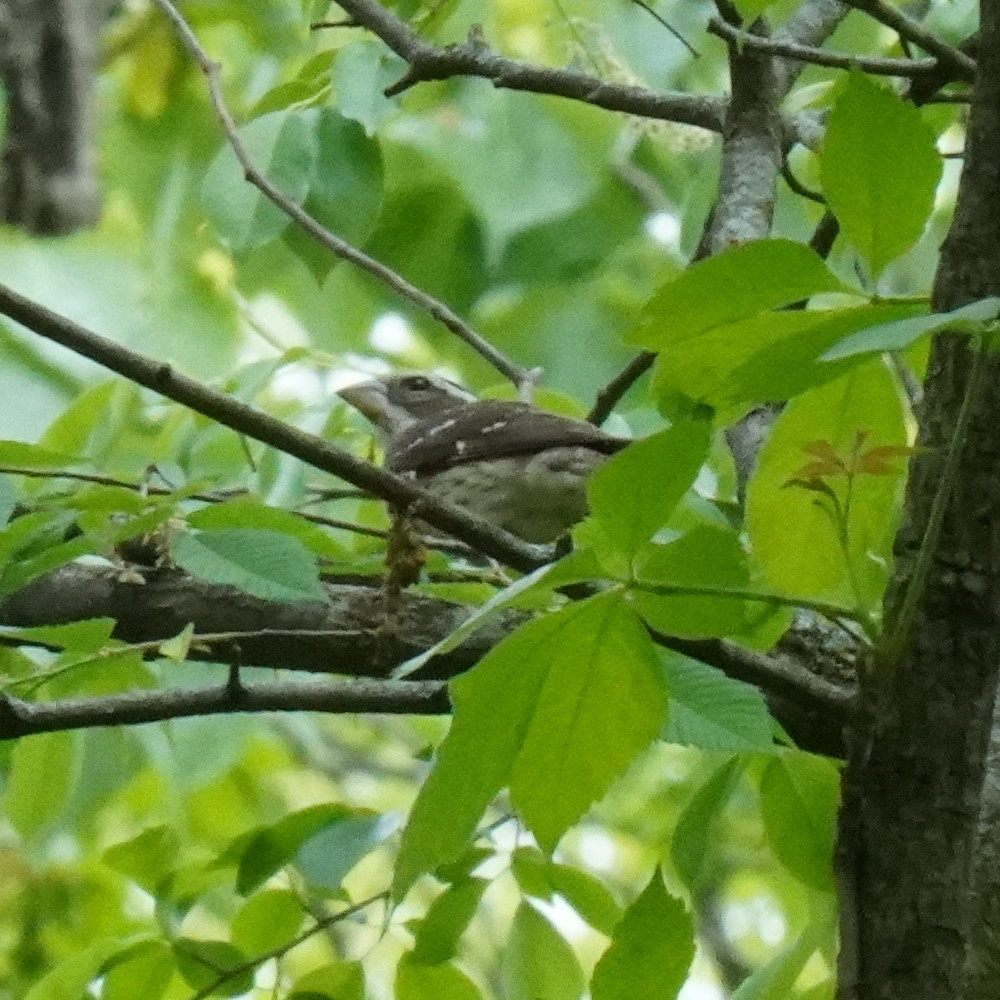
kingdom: Animalia
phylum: Chordata
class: Aves
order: Passeriformes
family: Cardinalidae
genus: Pheucticus
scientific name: Pheucticus ludovicianus
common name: Rose-breasted grosbeak
